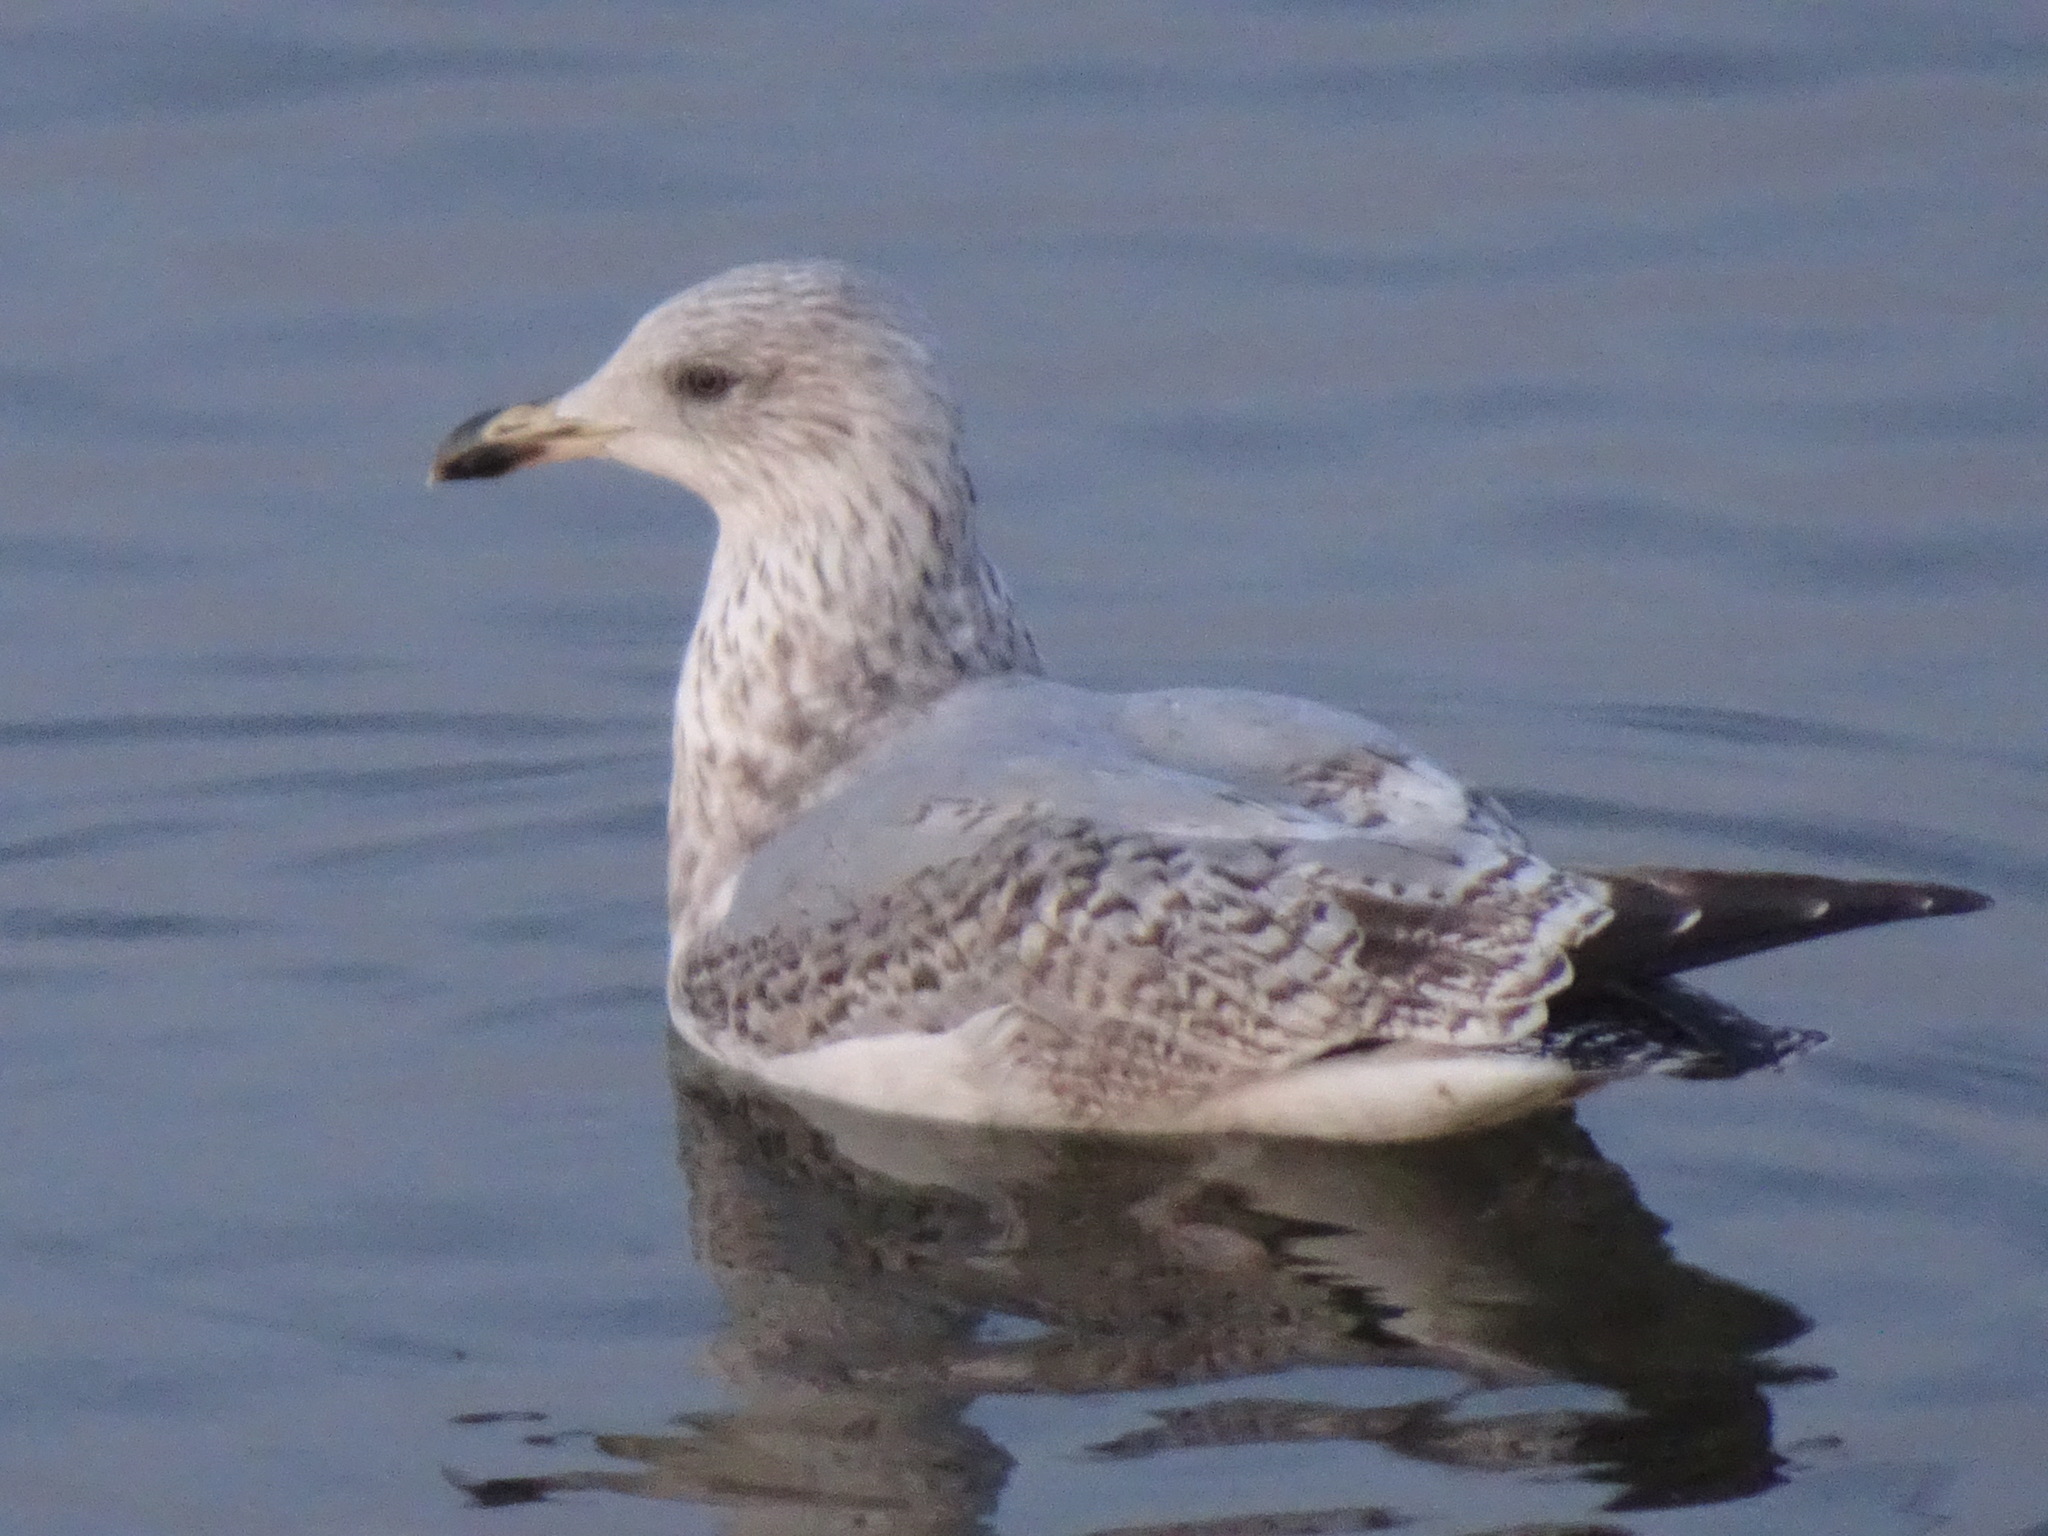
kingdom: Animalia
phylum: Chordata
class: Aves
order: Charadriiformes
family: Laridae
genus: Larus
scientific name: Larus argentatus
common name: Herring gull
